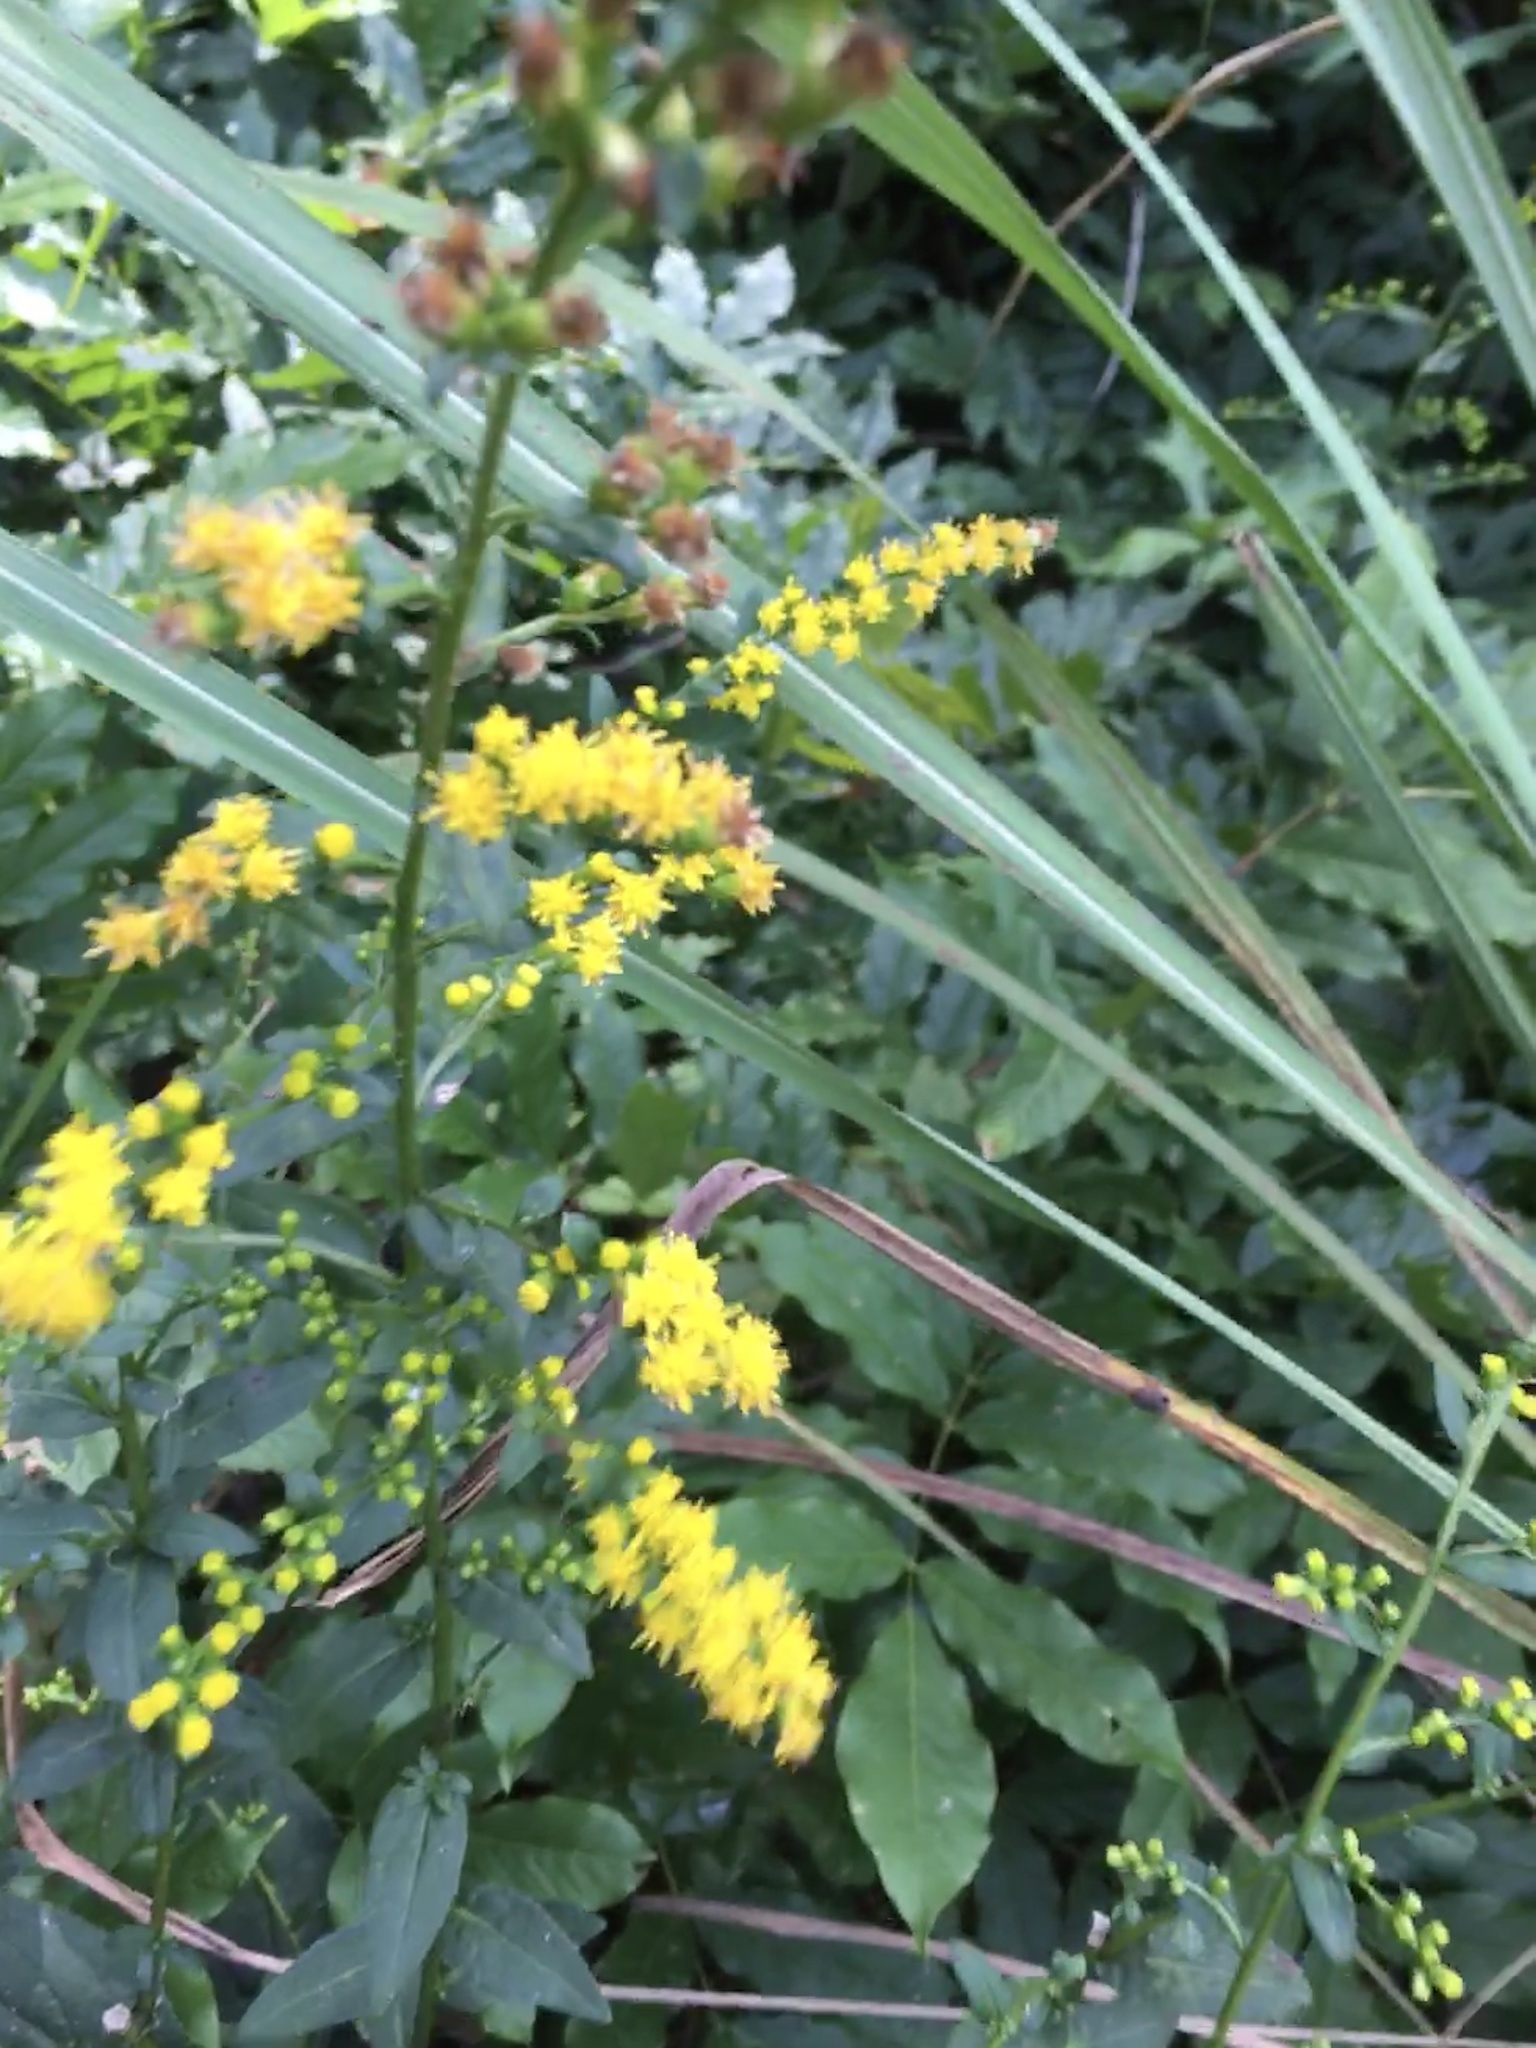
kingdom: Plantae
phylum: Tracheophyta
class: Magnoliopsida
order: Asterales
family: Asteraceae
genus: Solidago
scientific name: Solidago patula
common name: Rough-leaf goldenrod
